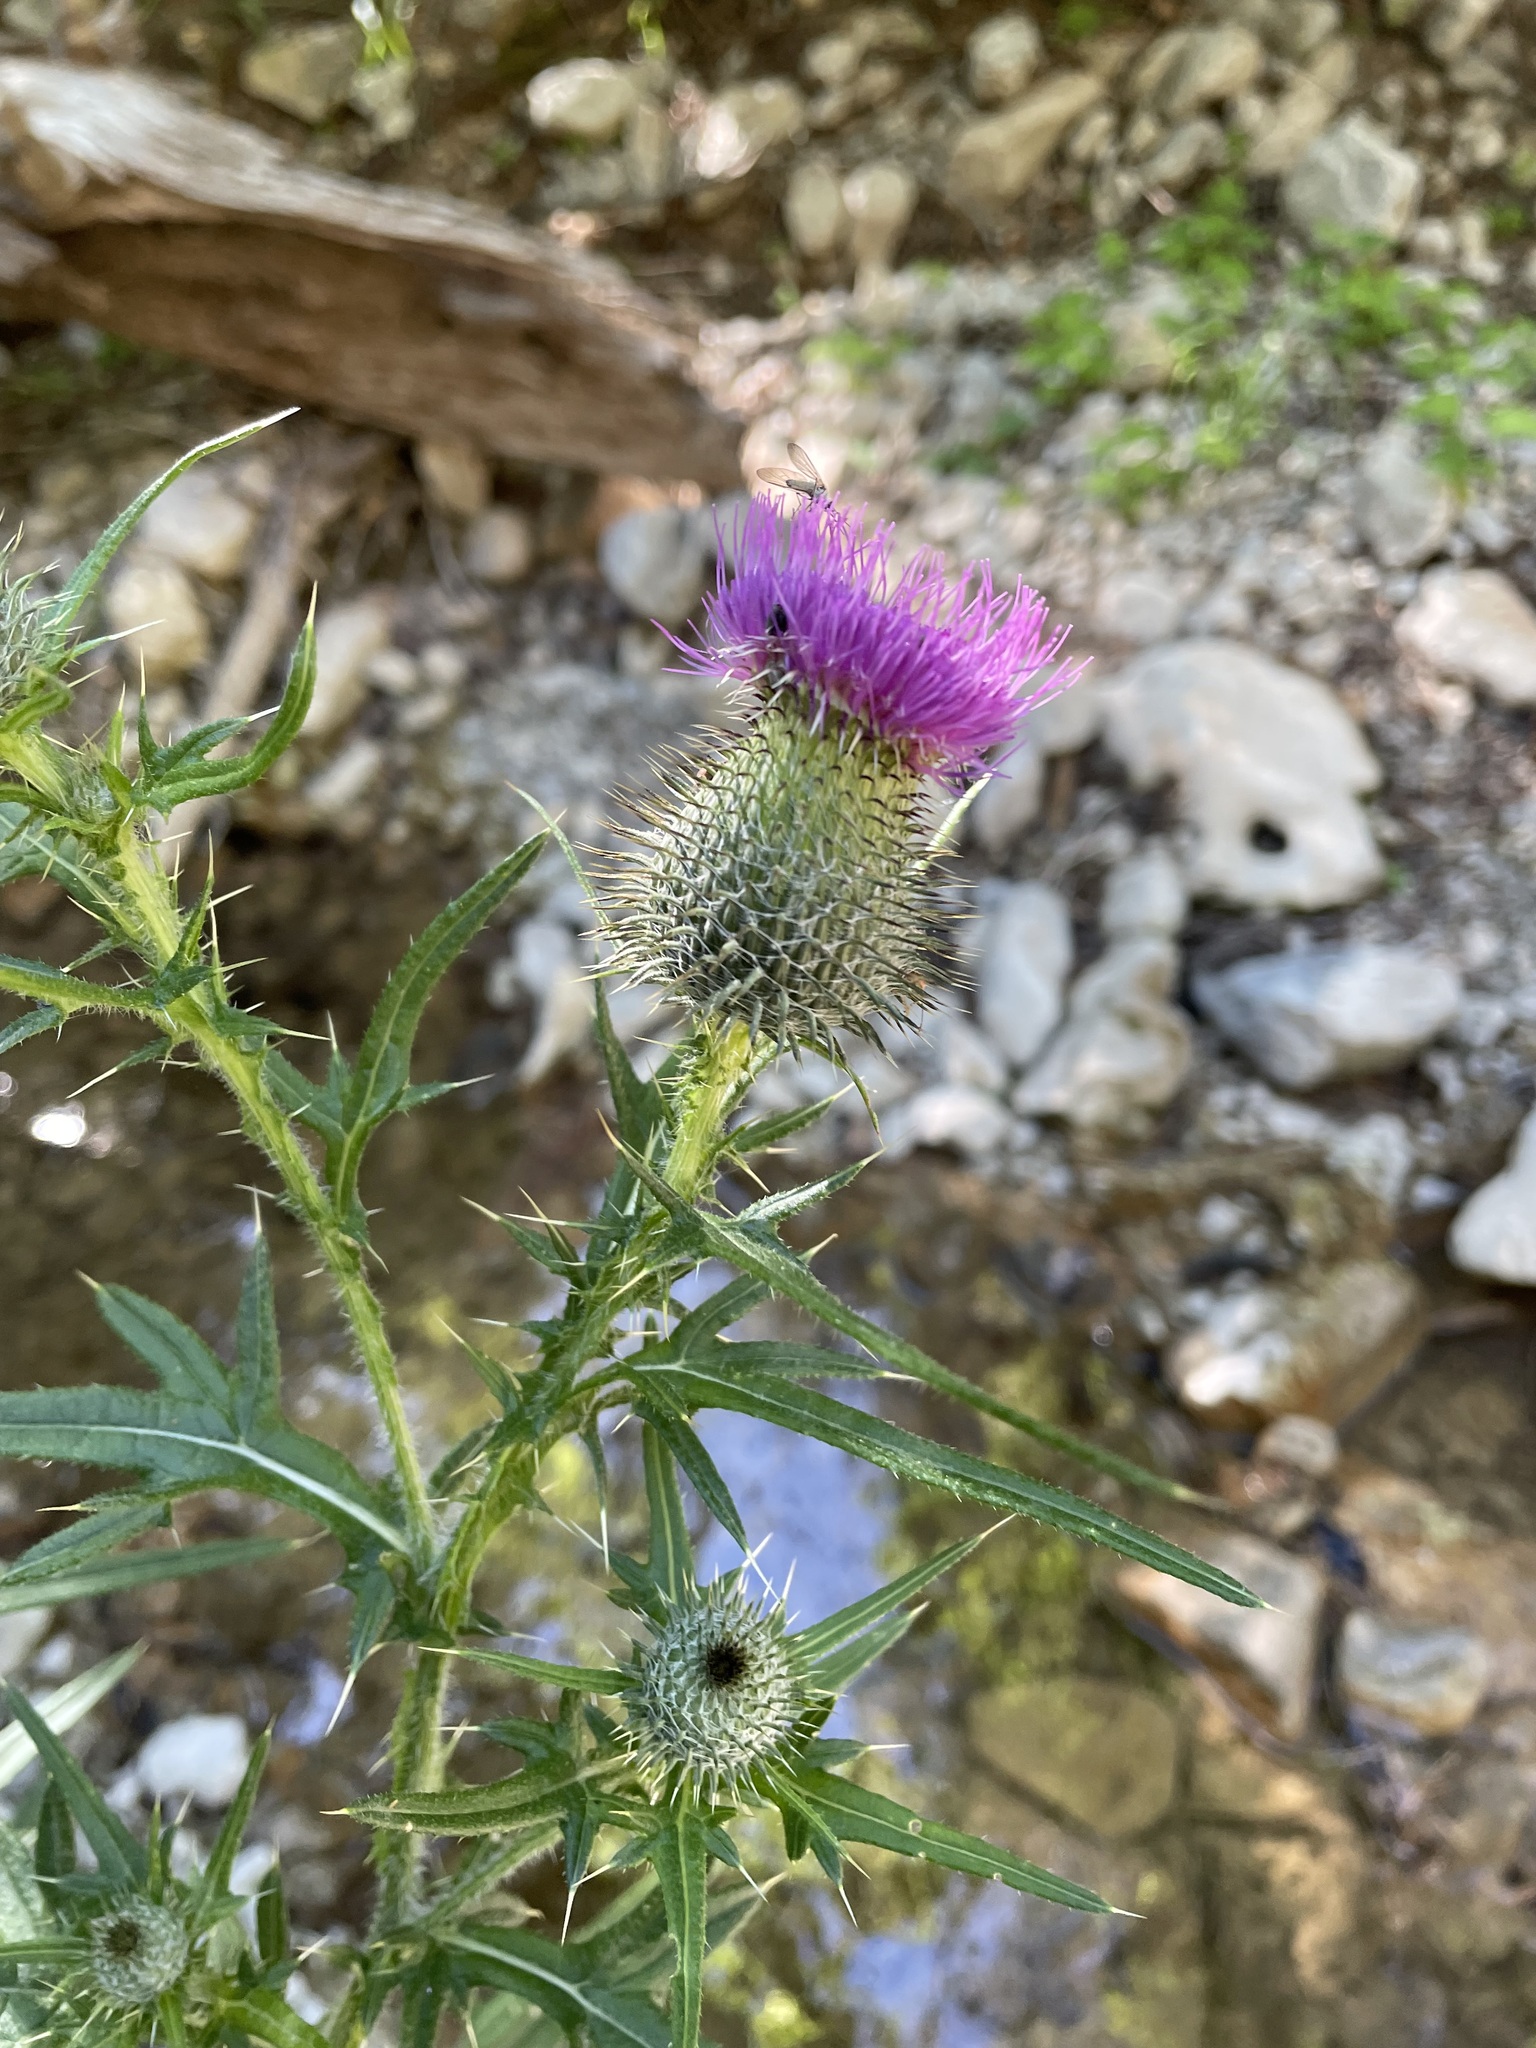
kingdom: Plantae
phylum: Tracheophyta
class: Magnoliopsida
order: Asterales
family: Asteraceae
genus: Cirsium
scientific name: Cirsium vulgare
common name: Bull thistle
